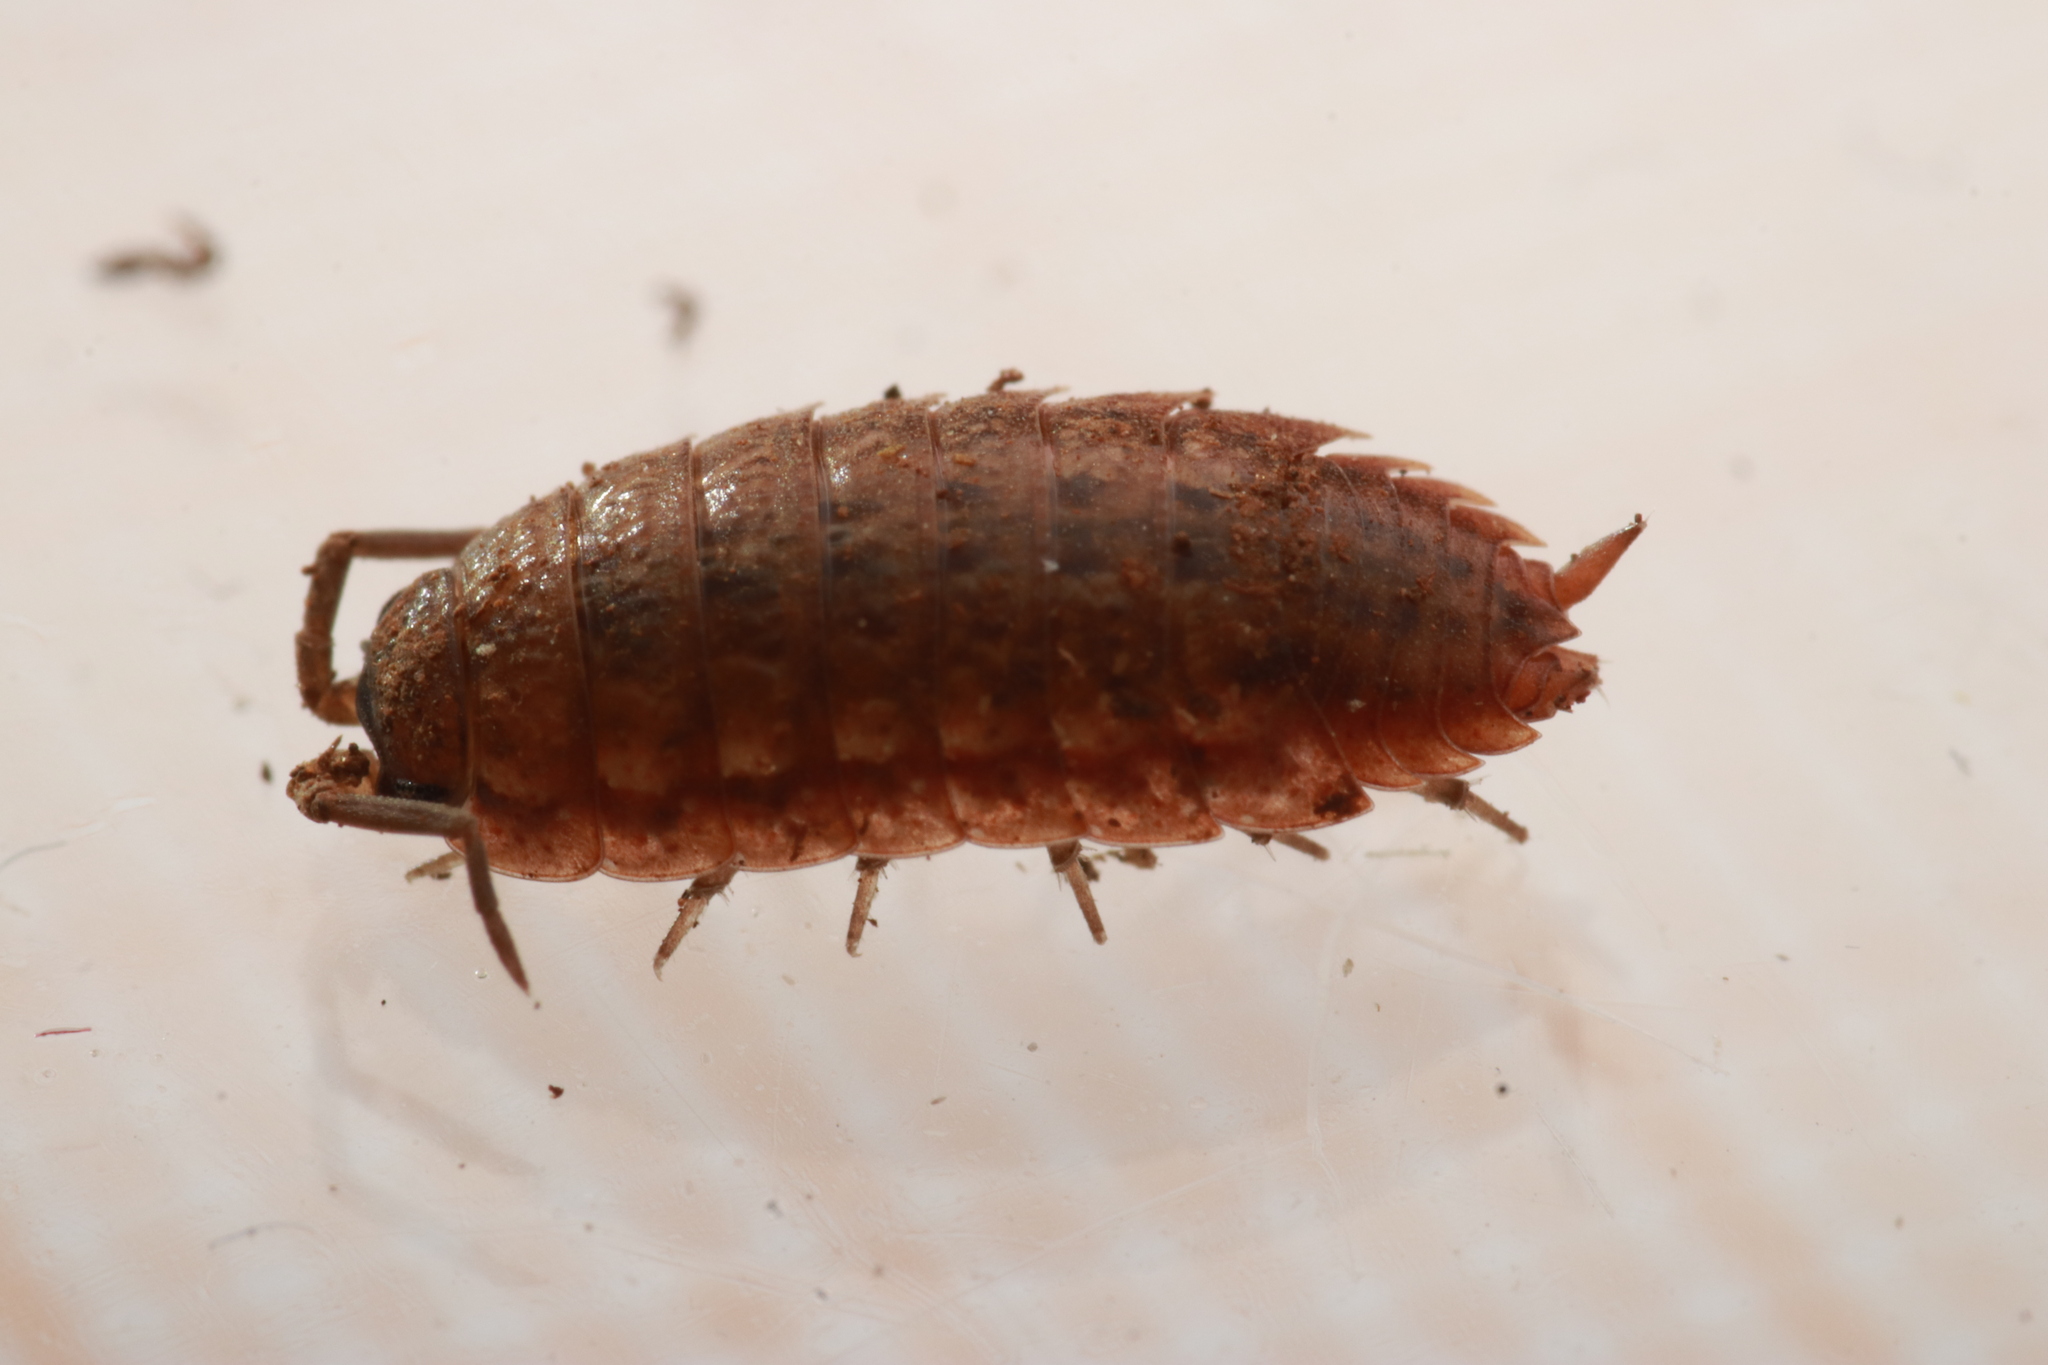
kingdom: Animalia
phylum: Arthropoda
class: Malacostraca
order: Isopoda
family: Porcellionidae
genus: Porcellio
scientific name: Porcellio provincialis
